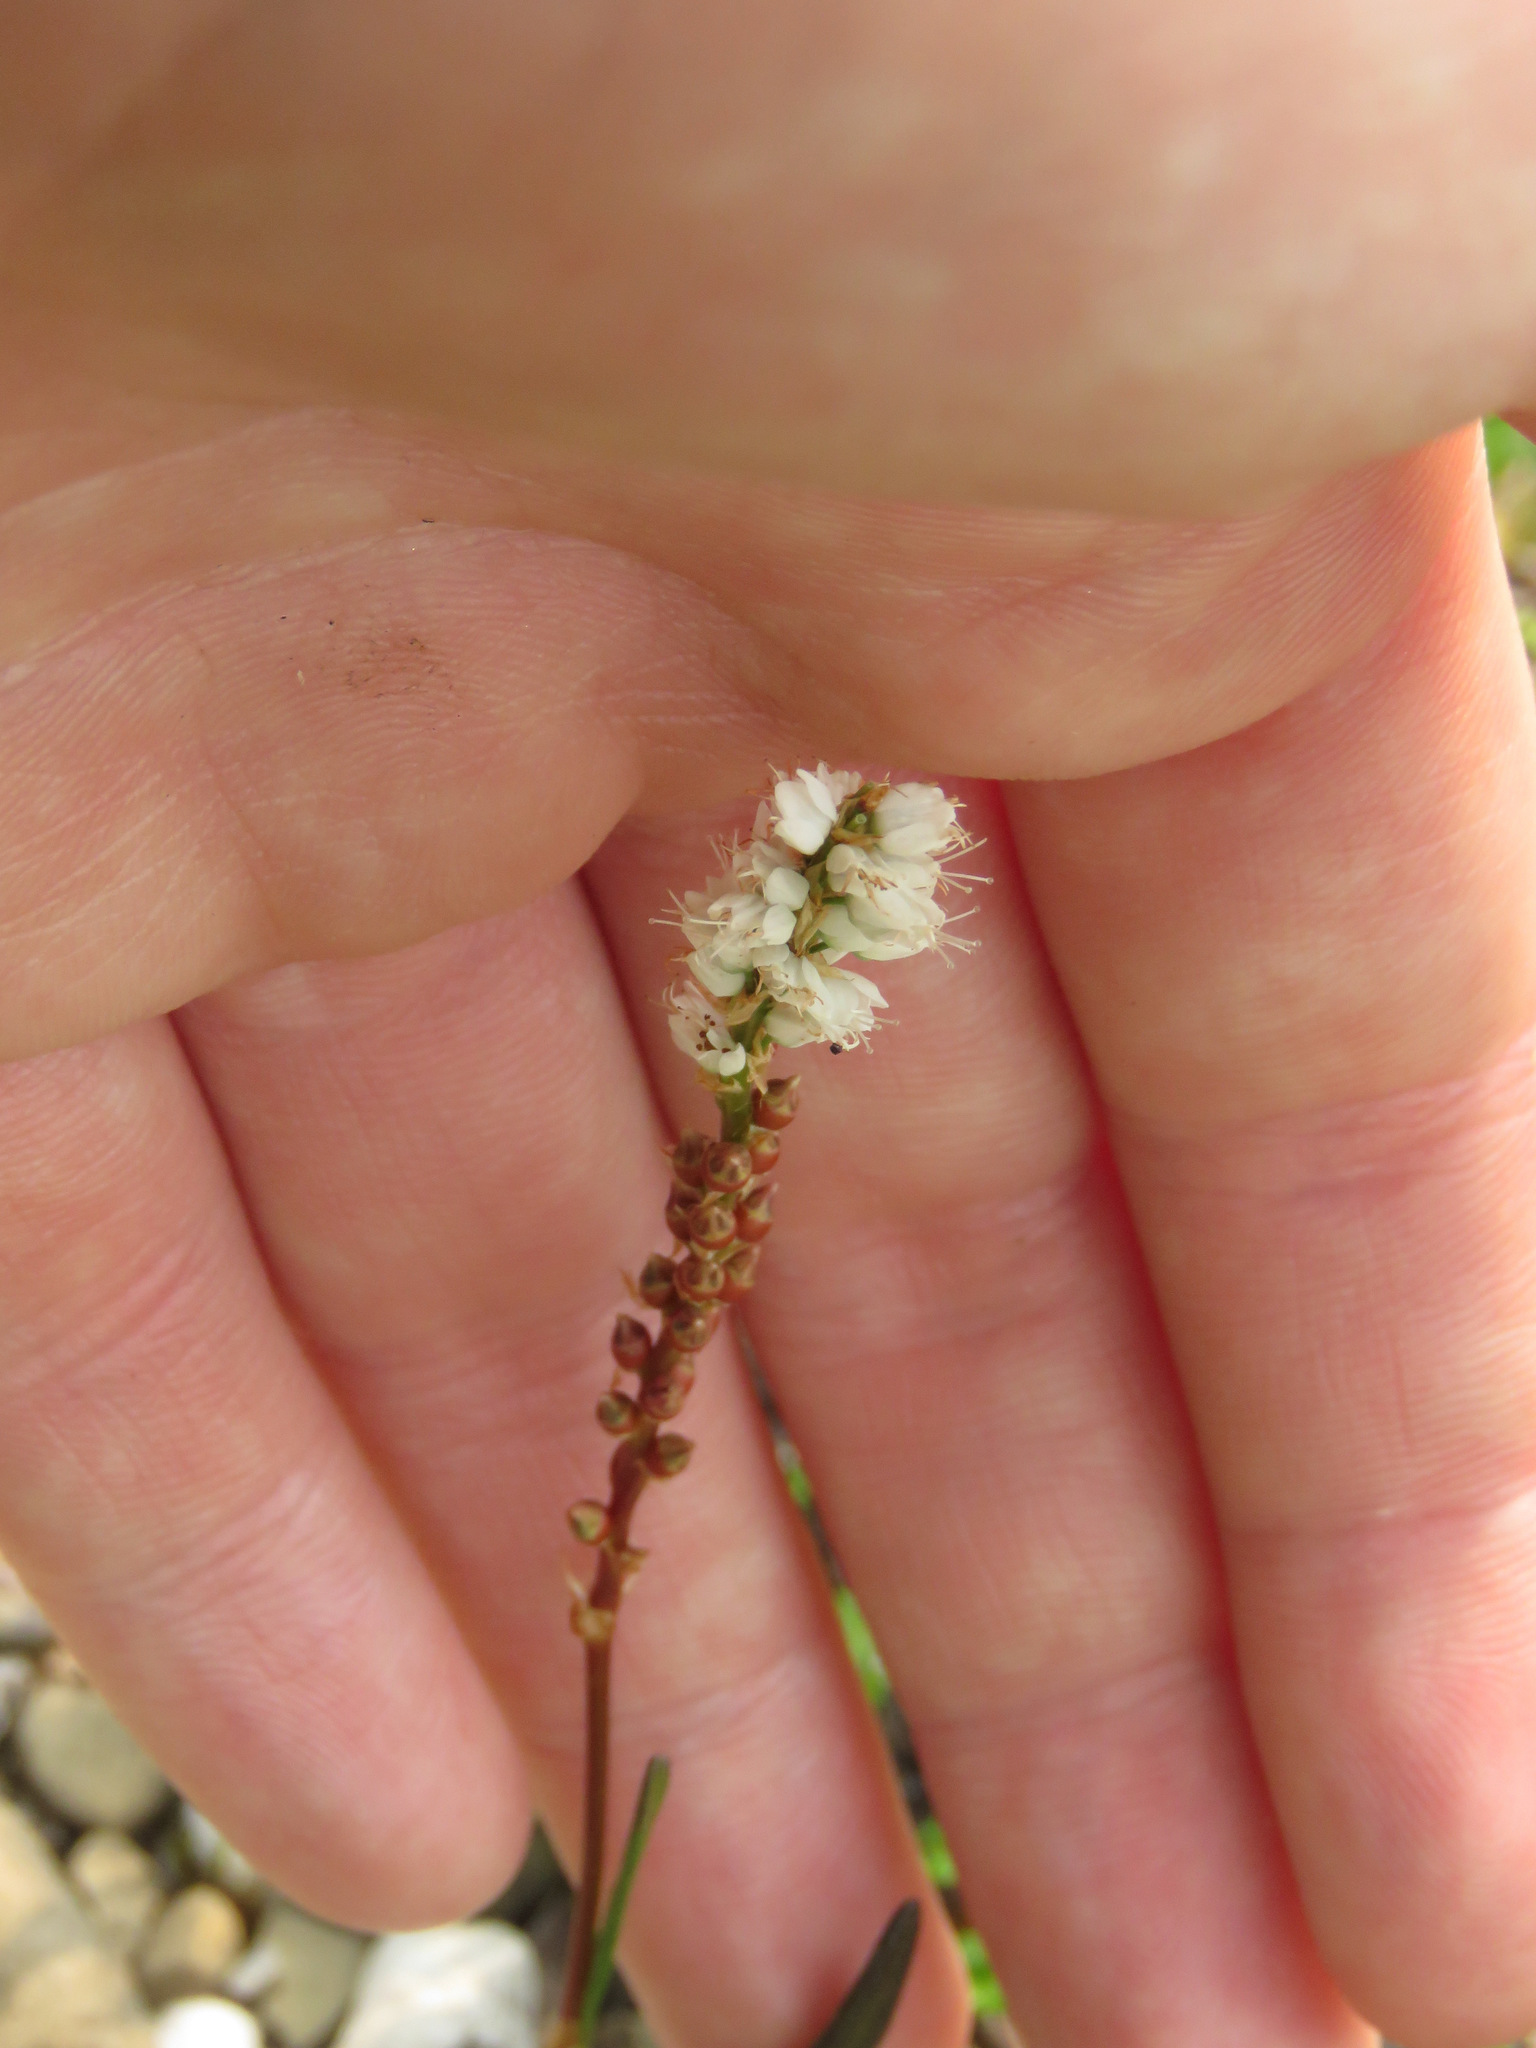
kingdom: Plantae
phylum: Tracheophyta
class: Magnoliopsida
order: Caryophyllales
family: Polygonaceae
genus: Bistorta
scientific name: Bistorta vivipara
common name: Alpine bistort
